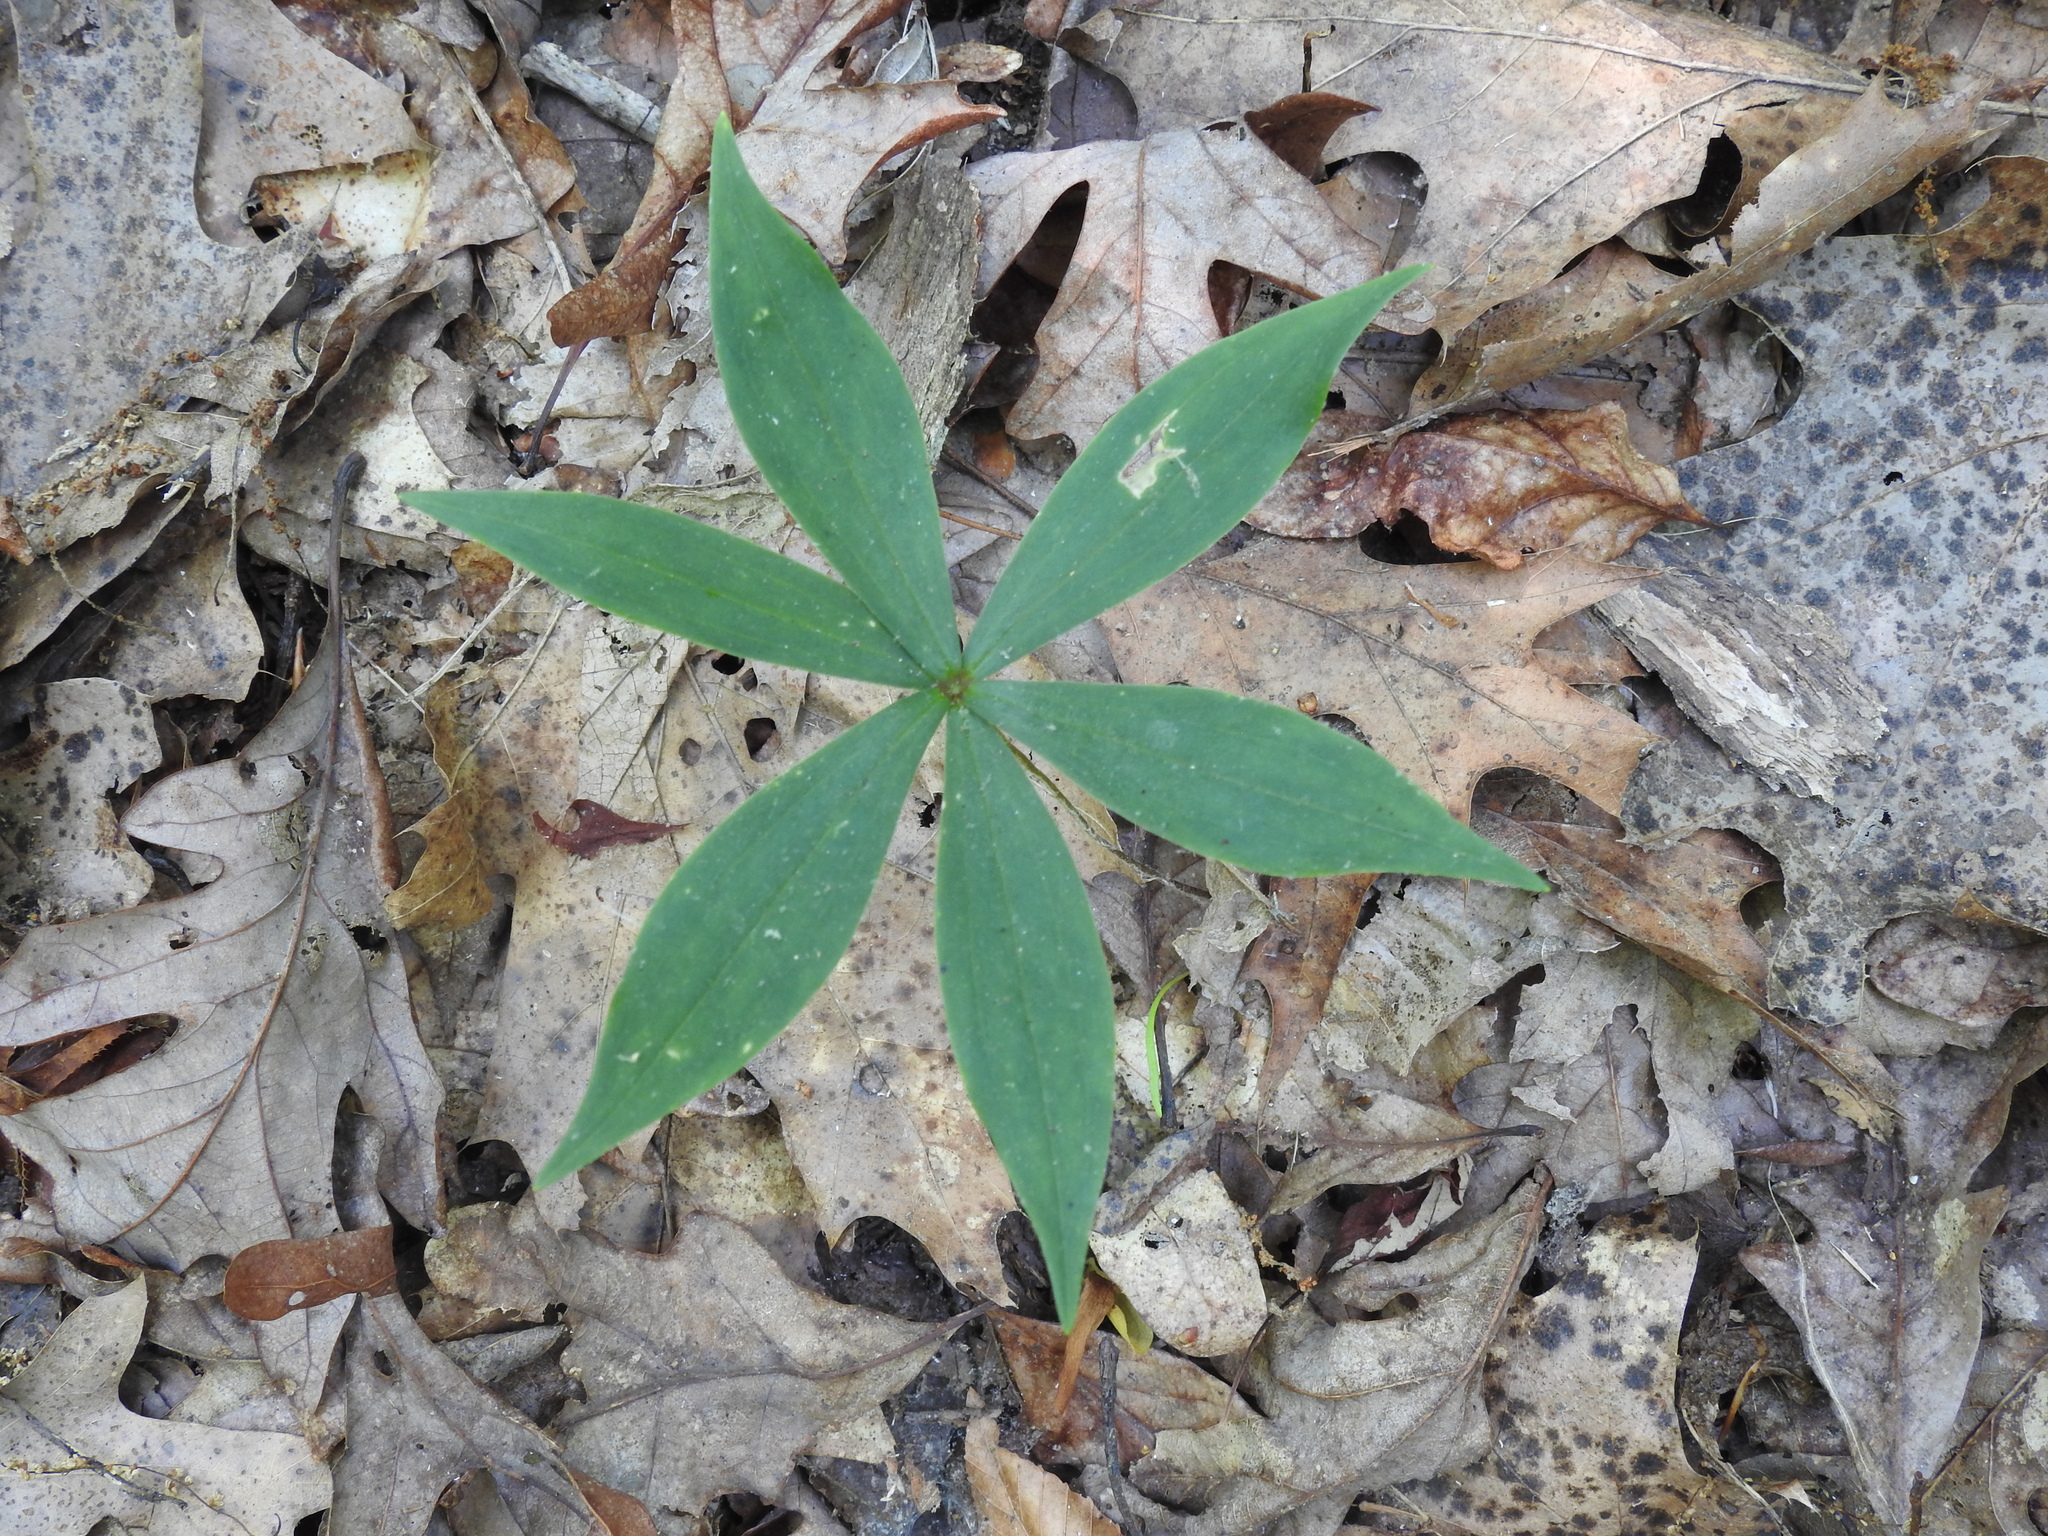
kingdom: Plantae
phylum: Tracheophyta
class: Liliopsida
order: Liliales
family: Liliaceae
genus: Medeola
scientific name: Medeola virginiana
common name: Indian cucumber-root
